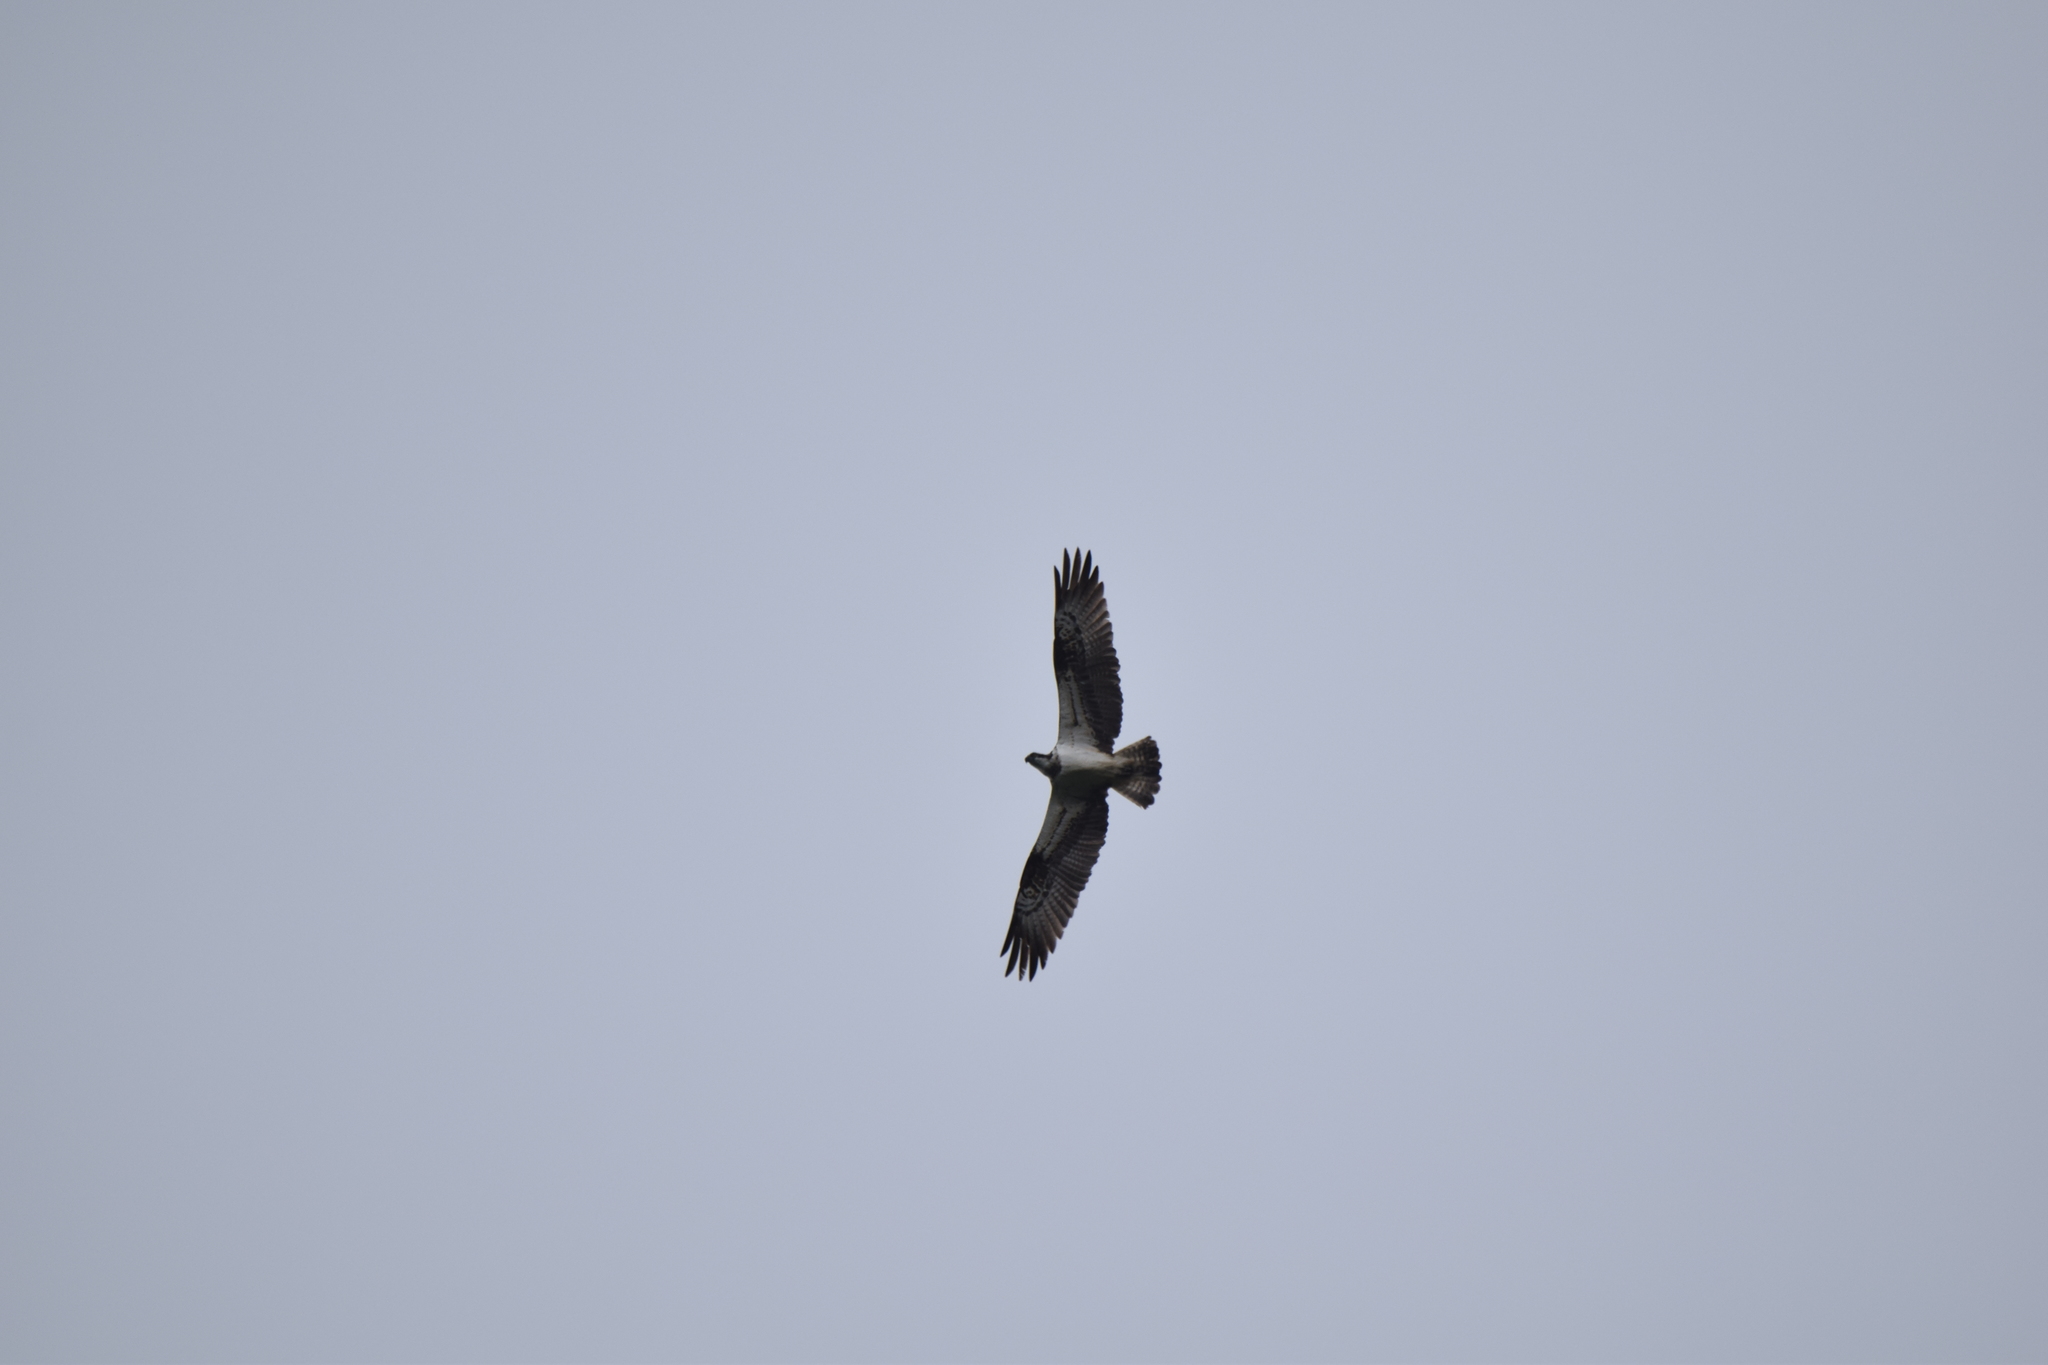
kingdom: Animalia
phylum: Chordata
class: Aves
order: Accipitriformes
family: Pandionidae
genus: Pandion
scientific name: Pandion haliaetus
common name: Osprey
